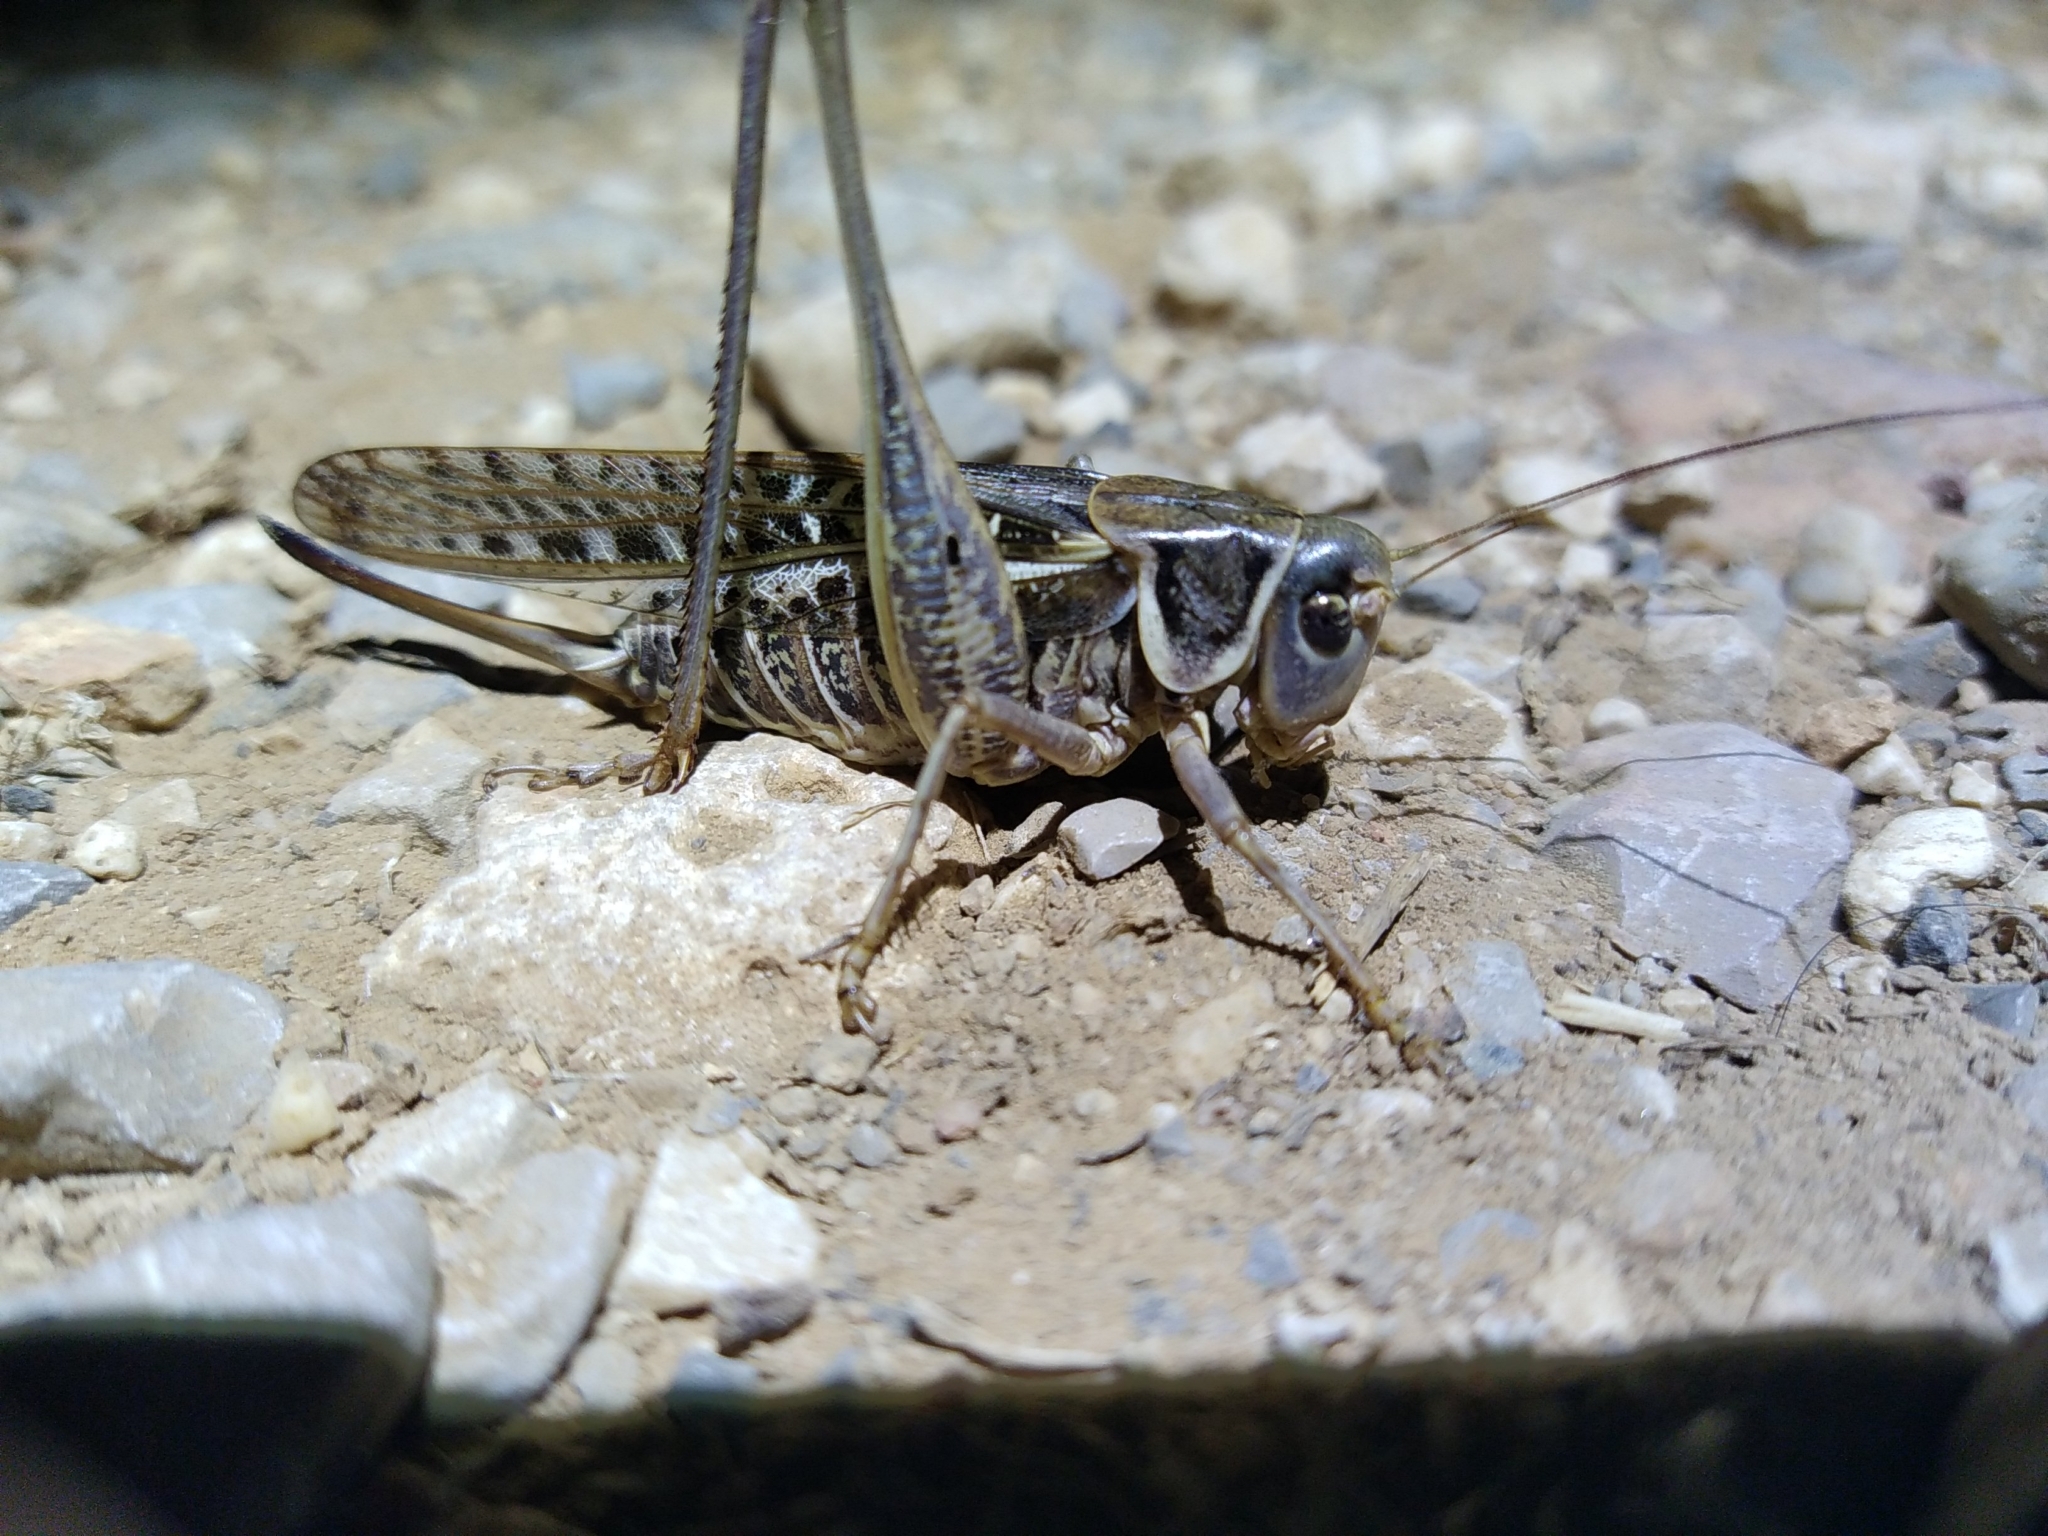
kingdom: Animalia
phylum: Arthropoda
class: Insecta
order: Orthoptera
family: Tettigoniidae
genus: Decticus
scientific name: Decticus albifrons
